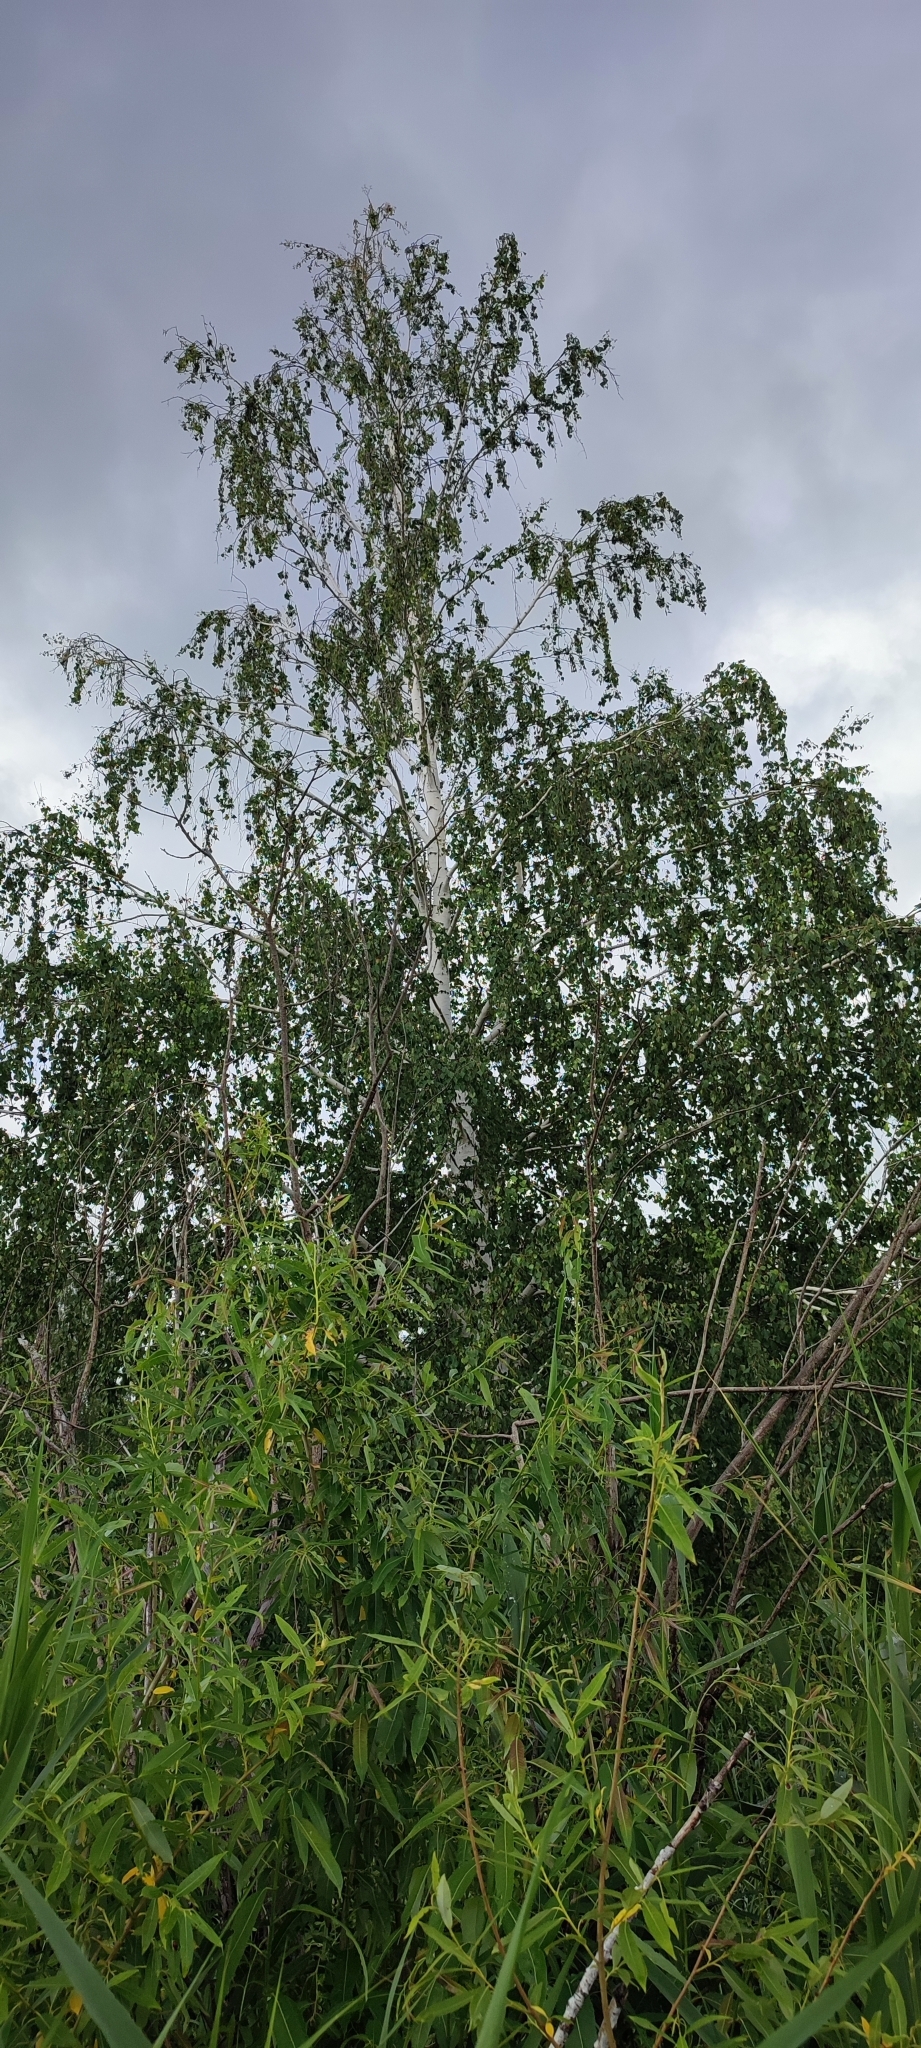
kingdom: Plantae
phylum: Tracheophyta
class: Magnoliopsida
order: Fagales
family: Betulaceae
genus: Betula
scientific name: Betula pendula
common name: Silver birch
